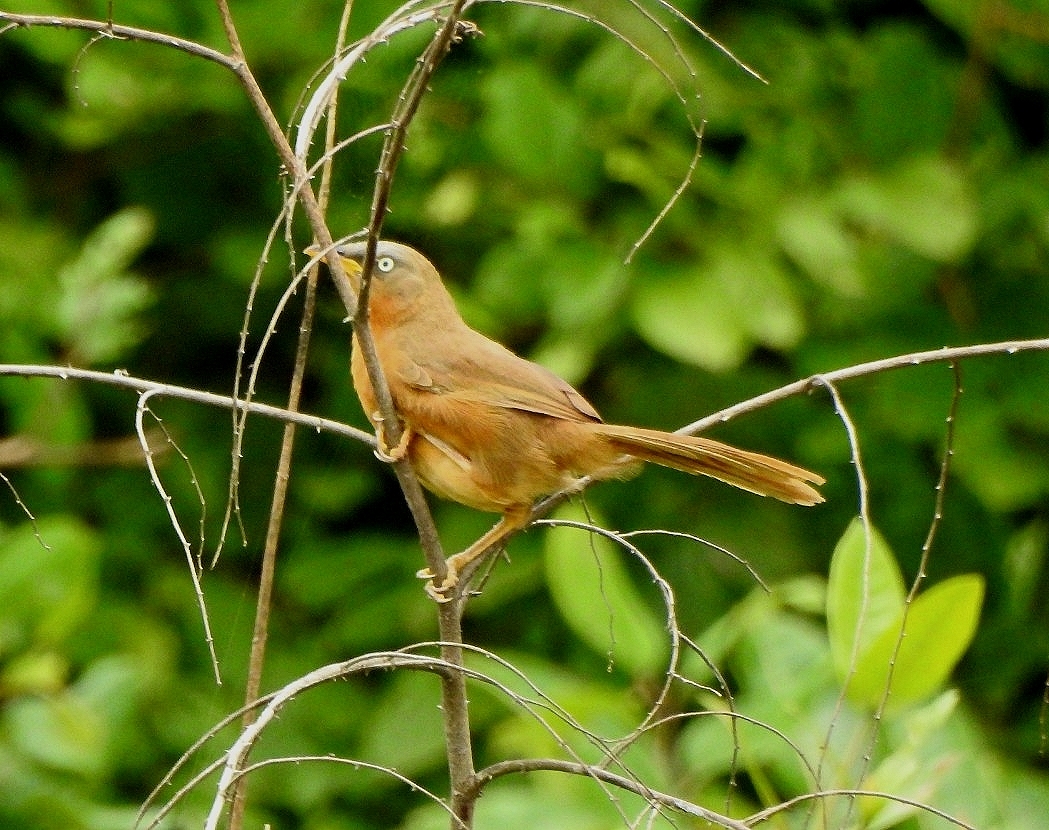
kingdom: Animalia
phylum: Chordata
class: Aves
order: Passeriformes
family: Leiothrichidae
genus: Turdoides
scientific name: Turdoides subrufa
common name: Rufous babbler
